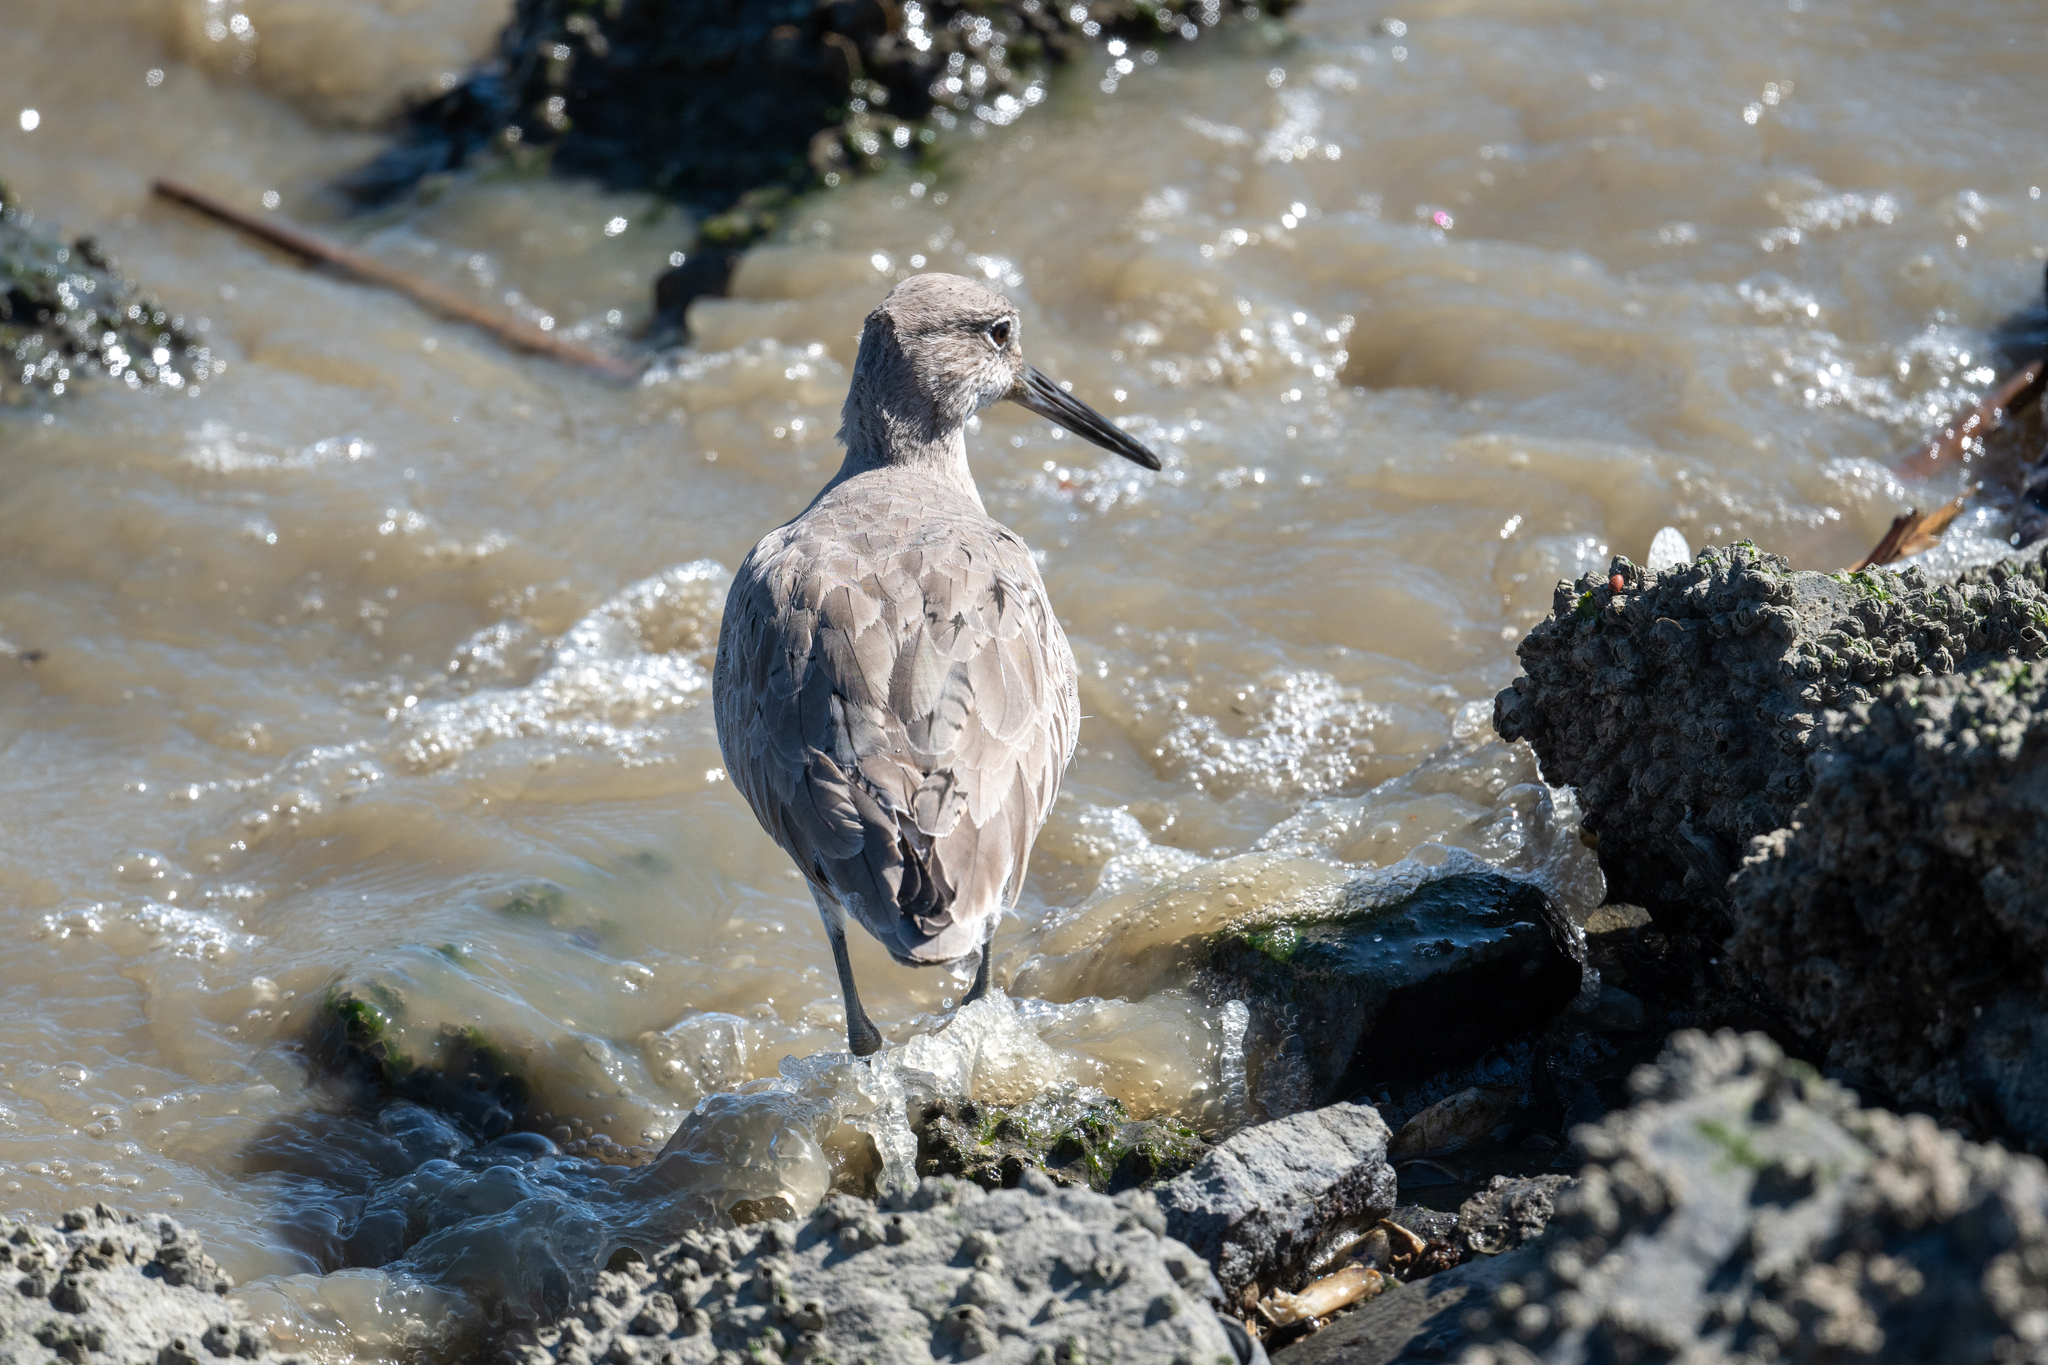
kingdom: Animalia
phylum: Chordata
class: Aves
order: Charadriiformes
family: Scolopacidae
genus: Tringa
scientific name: Tringa semipalmata
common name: Willet
